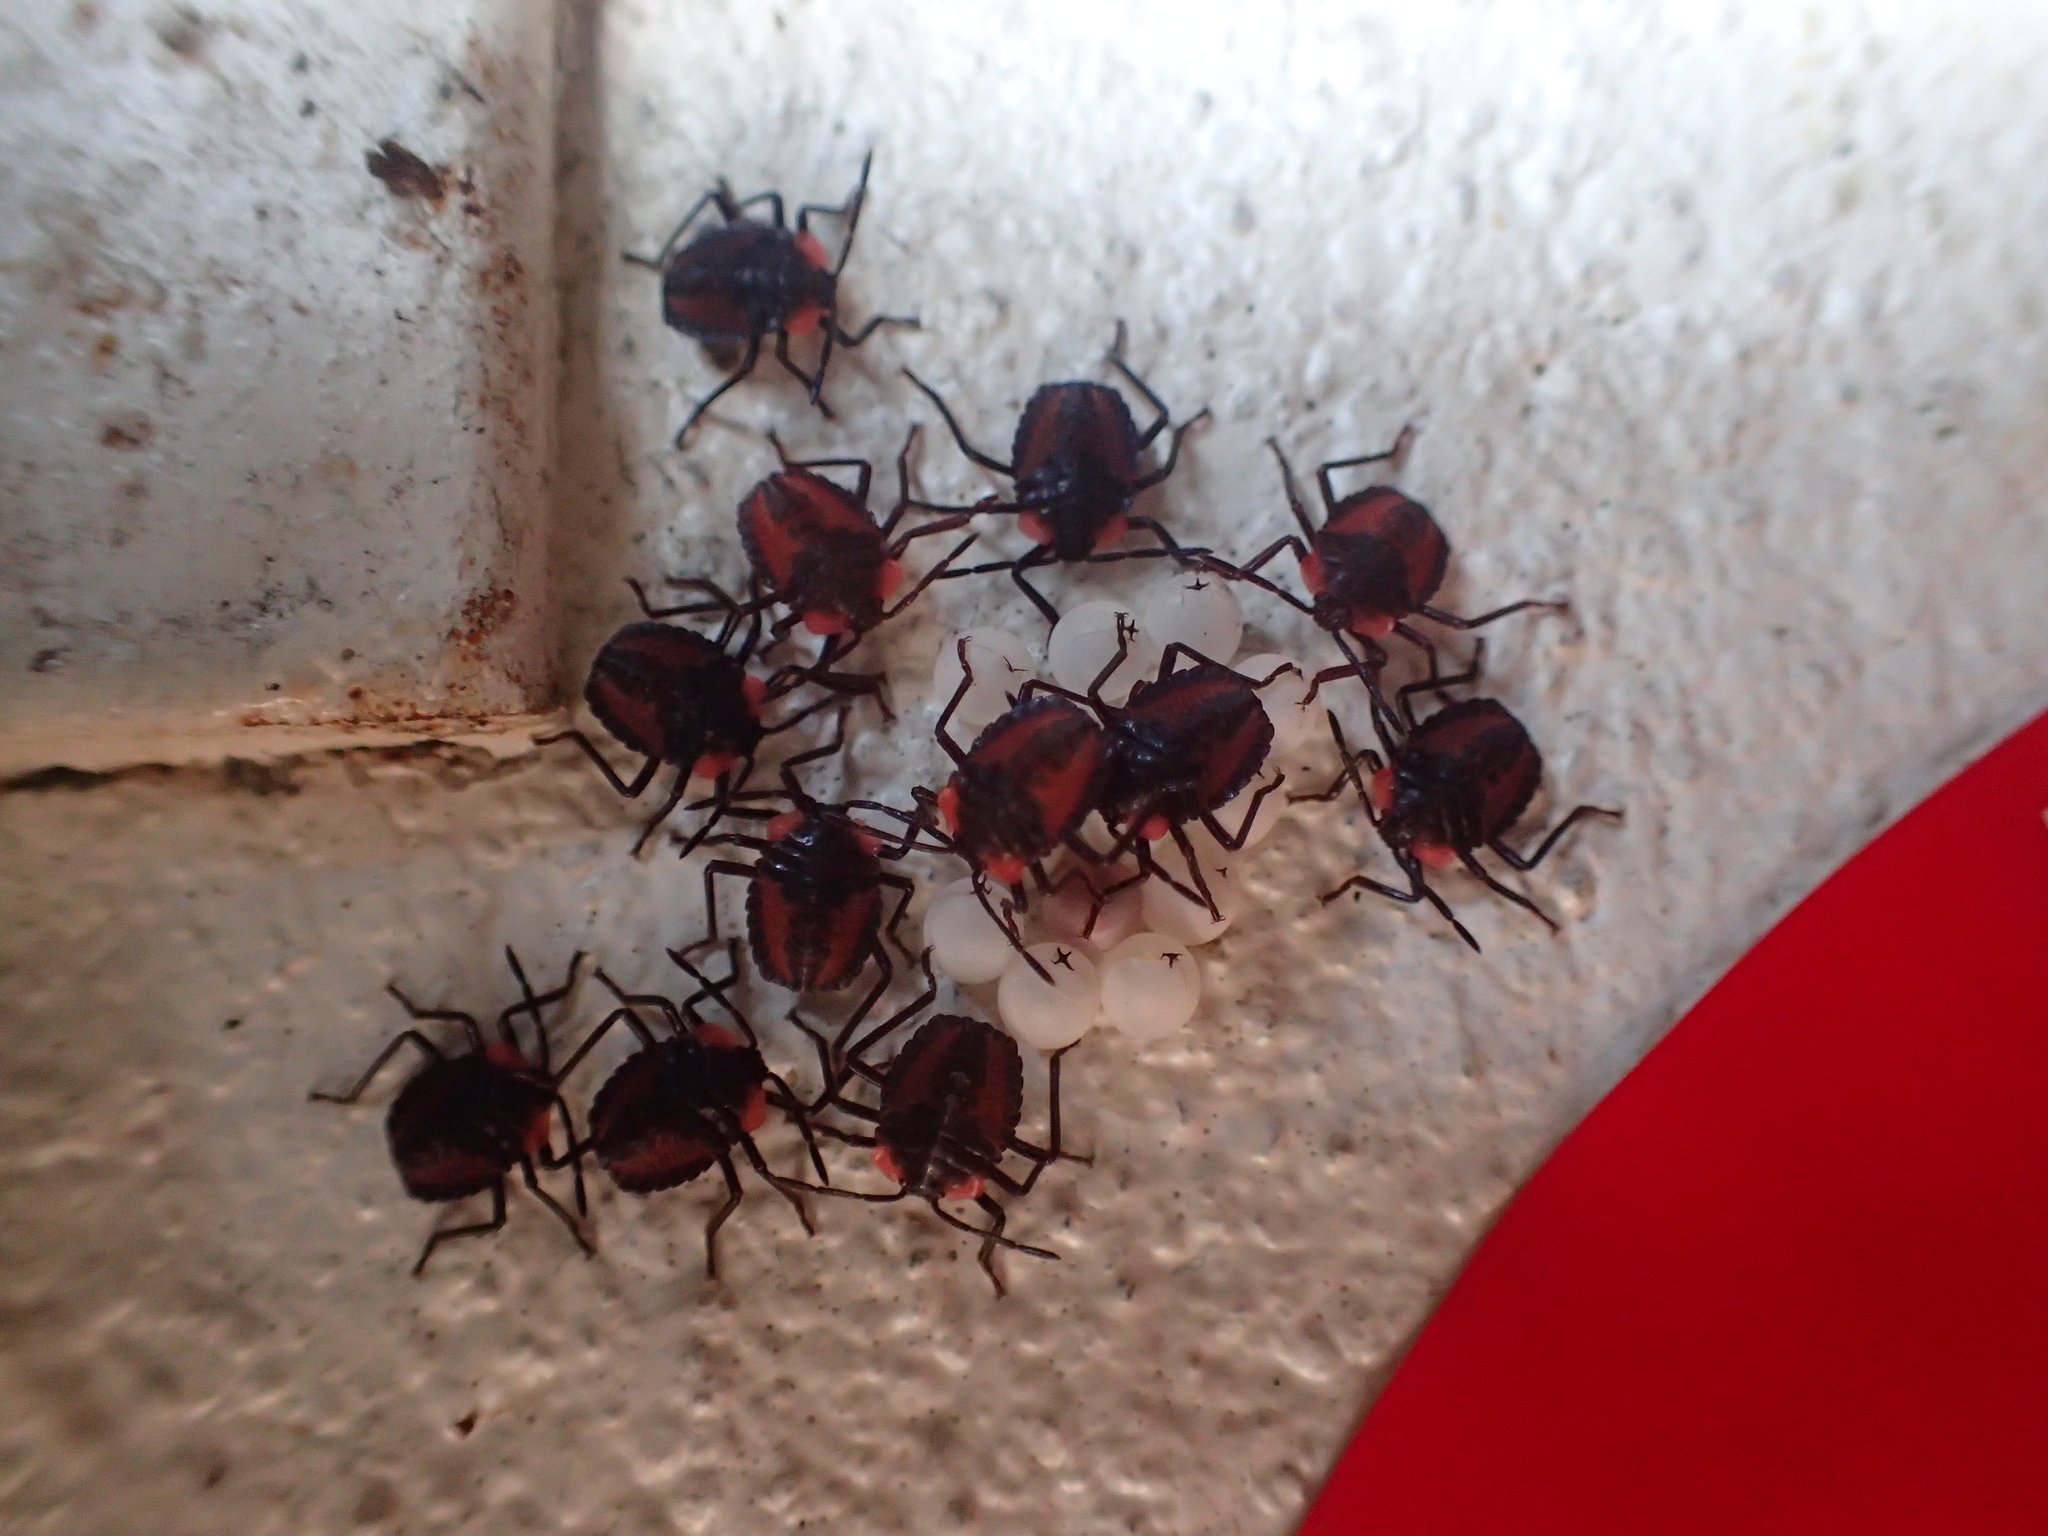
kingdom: Animalia
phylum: Arthropoda
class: Insecta
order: Hemiptera
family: Tessaratomidae
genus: Tessaratoma
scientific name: Tessaratoma papillosa
